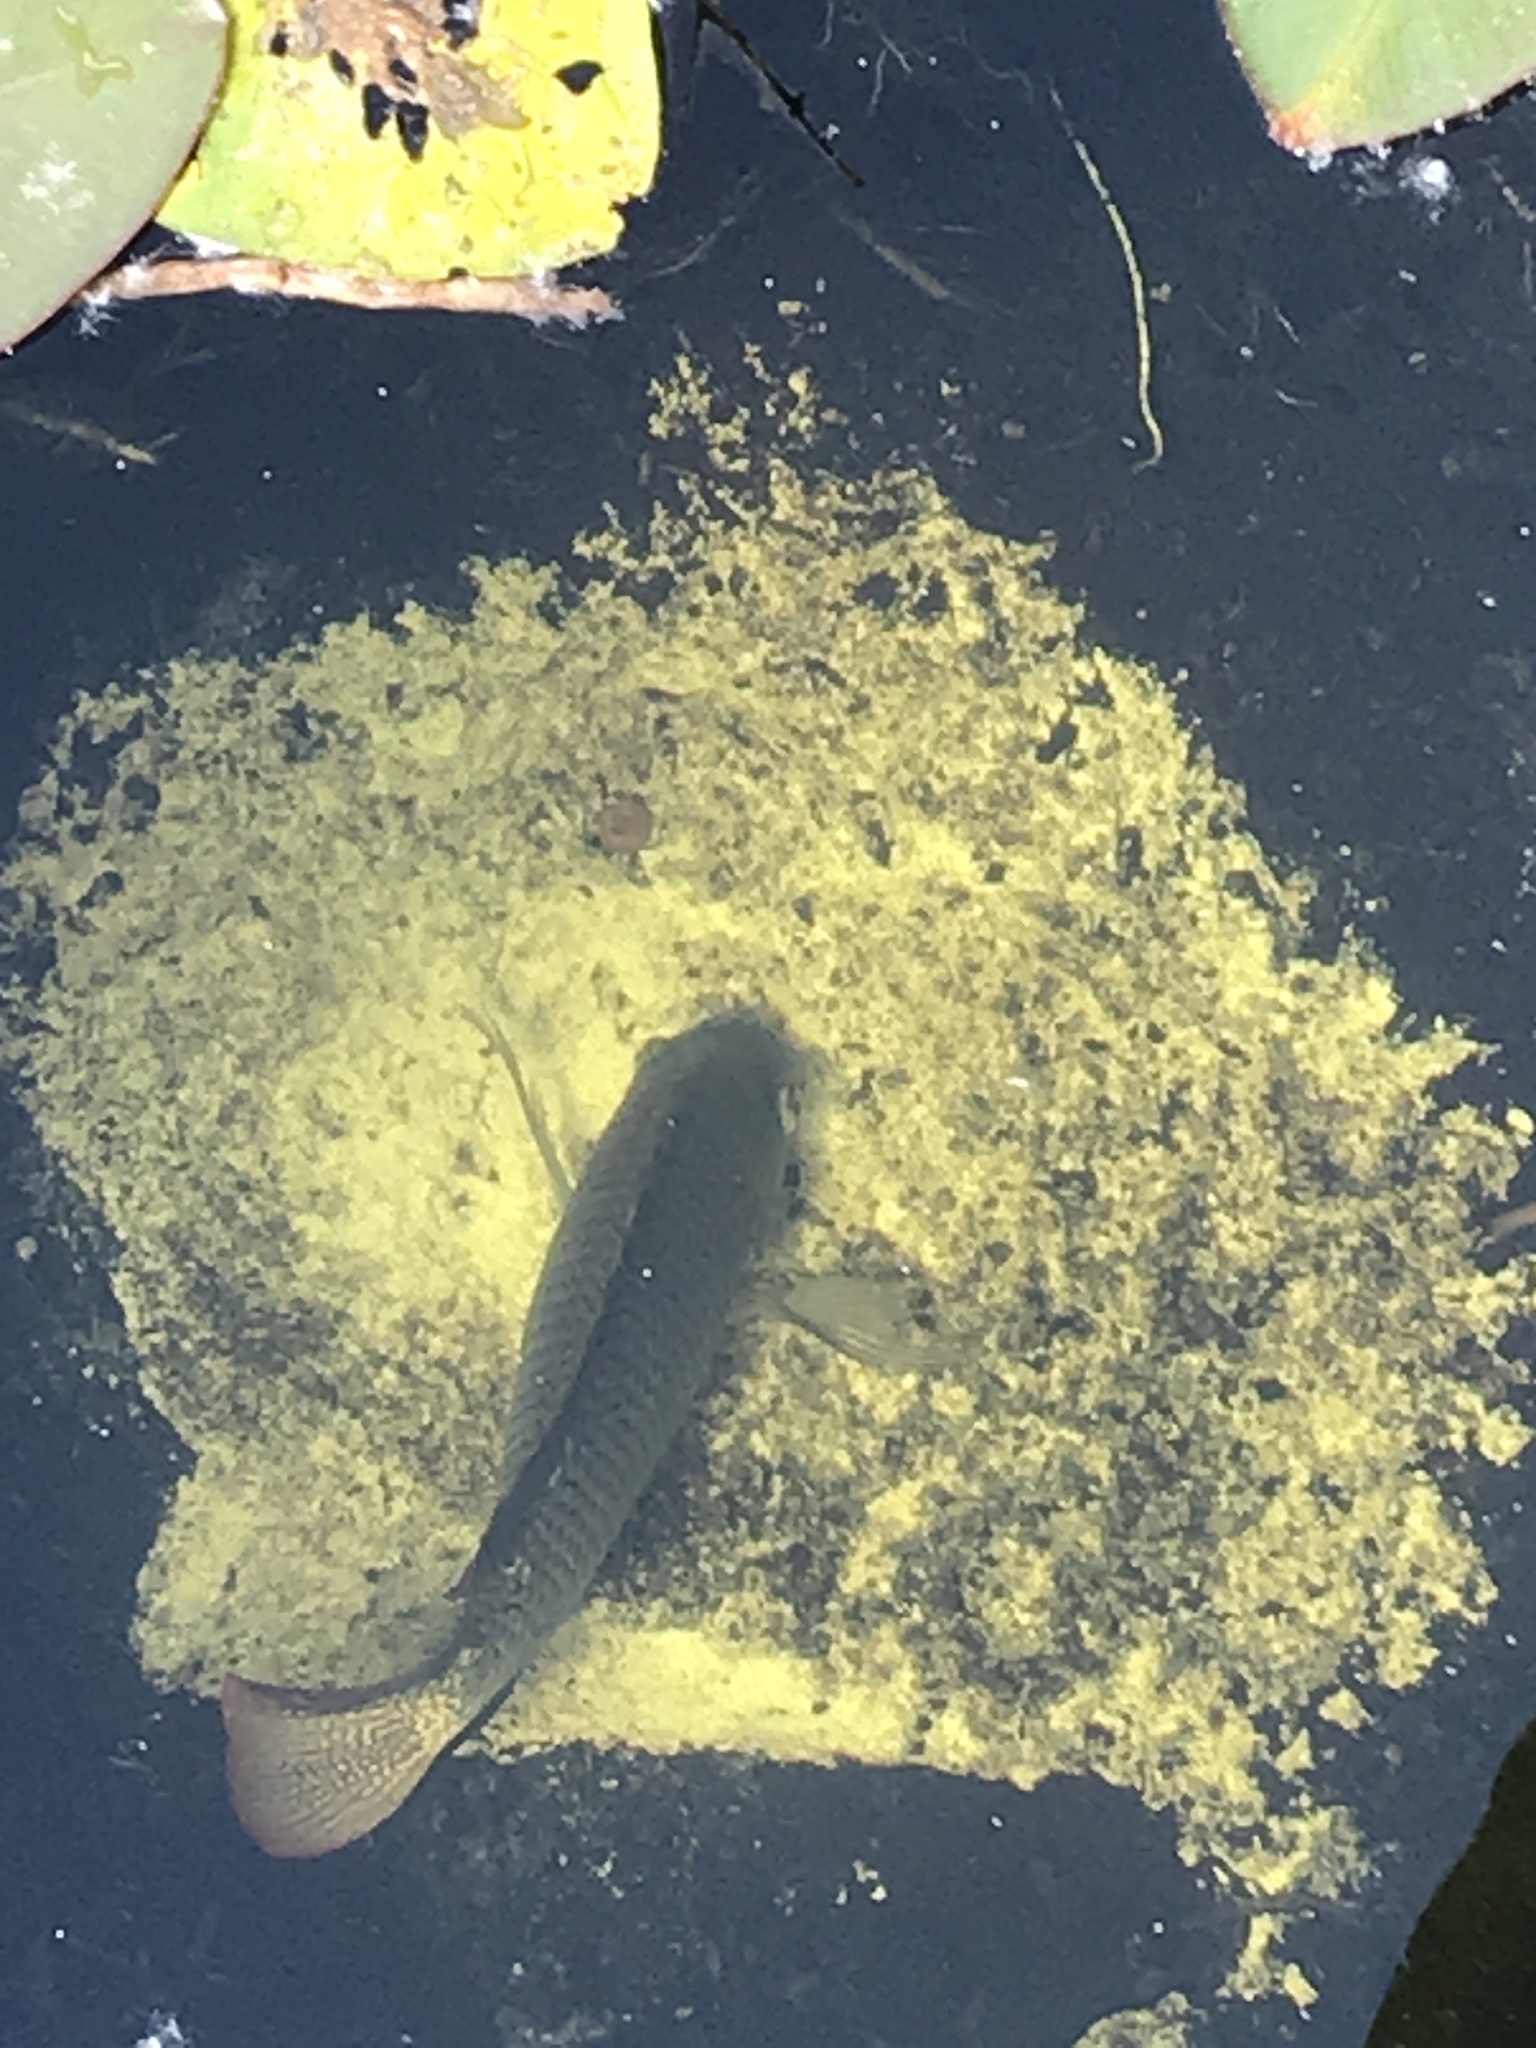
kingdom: Animalia
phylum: Chordata
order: Perciformes
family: Cichlidae
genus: Oreochromis
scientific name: Oreochromis aureus
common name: Blue tilapia
